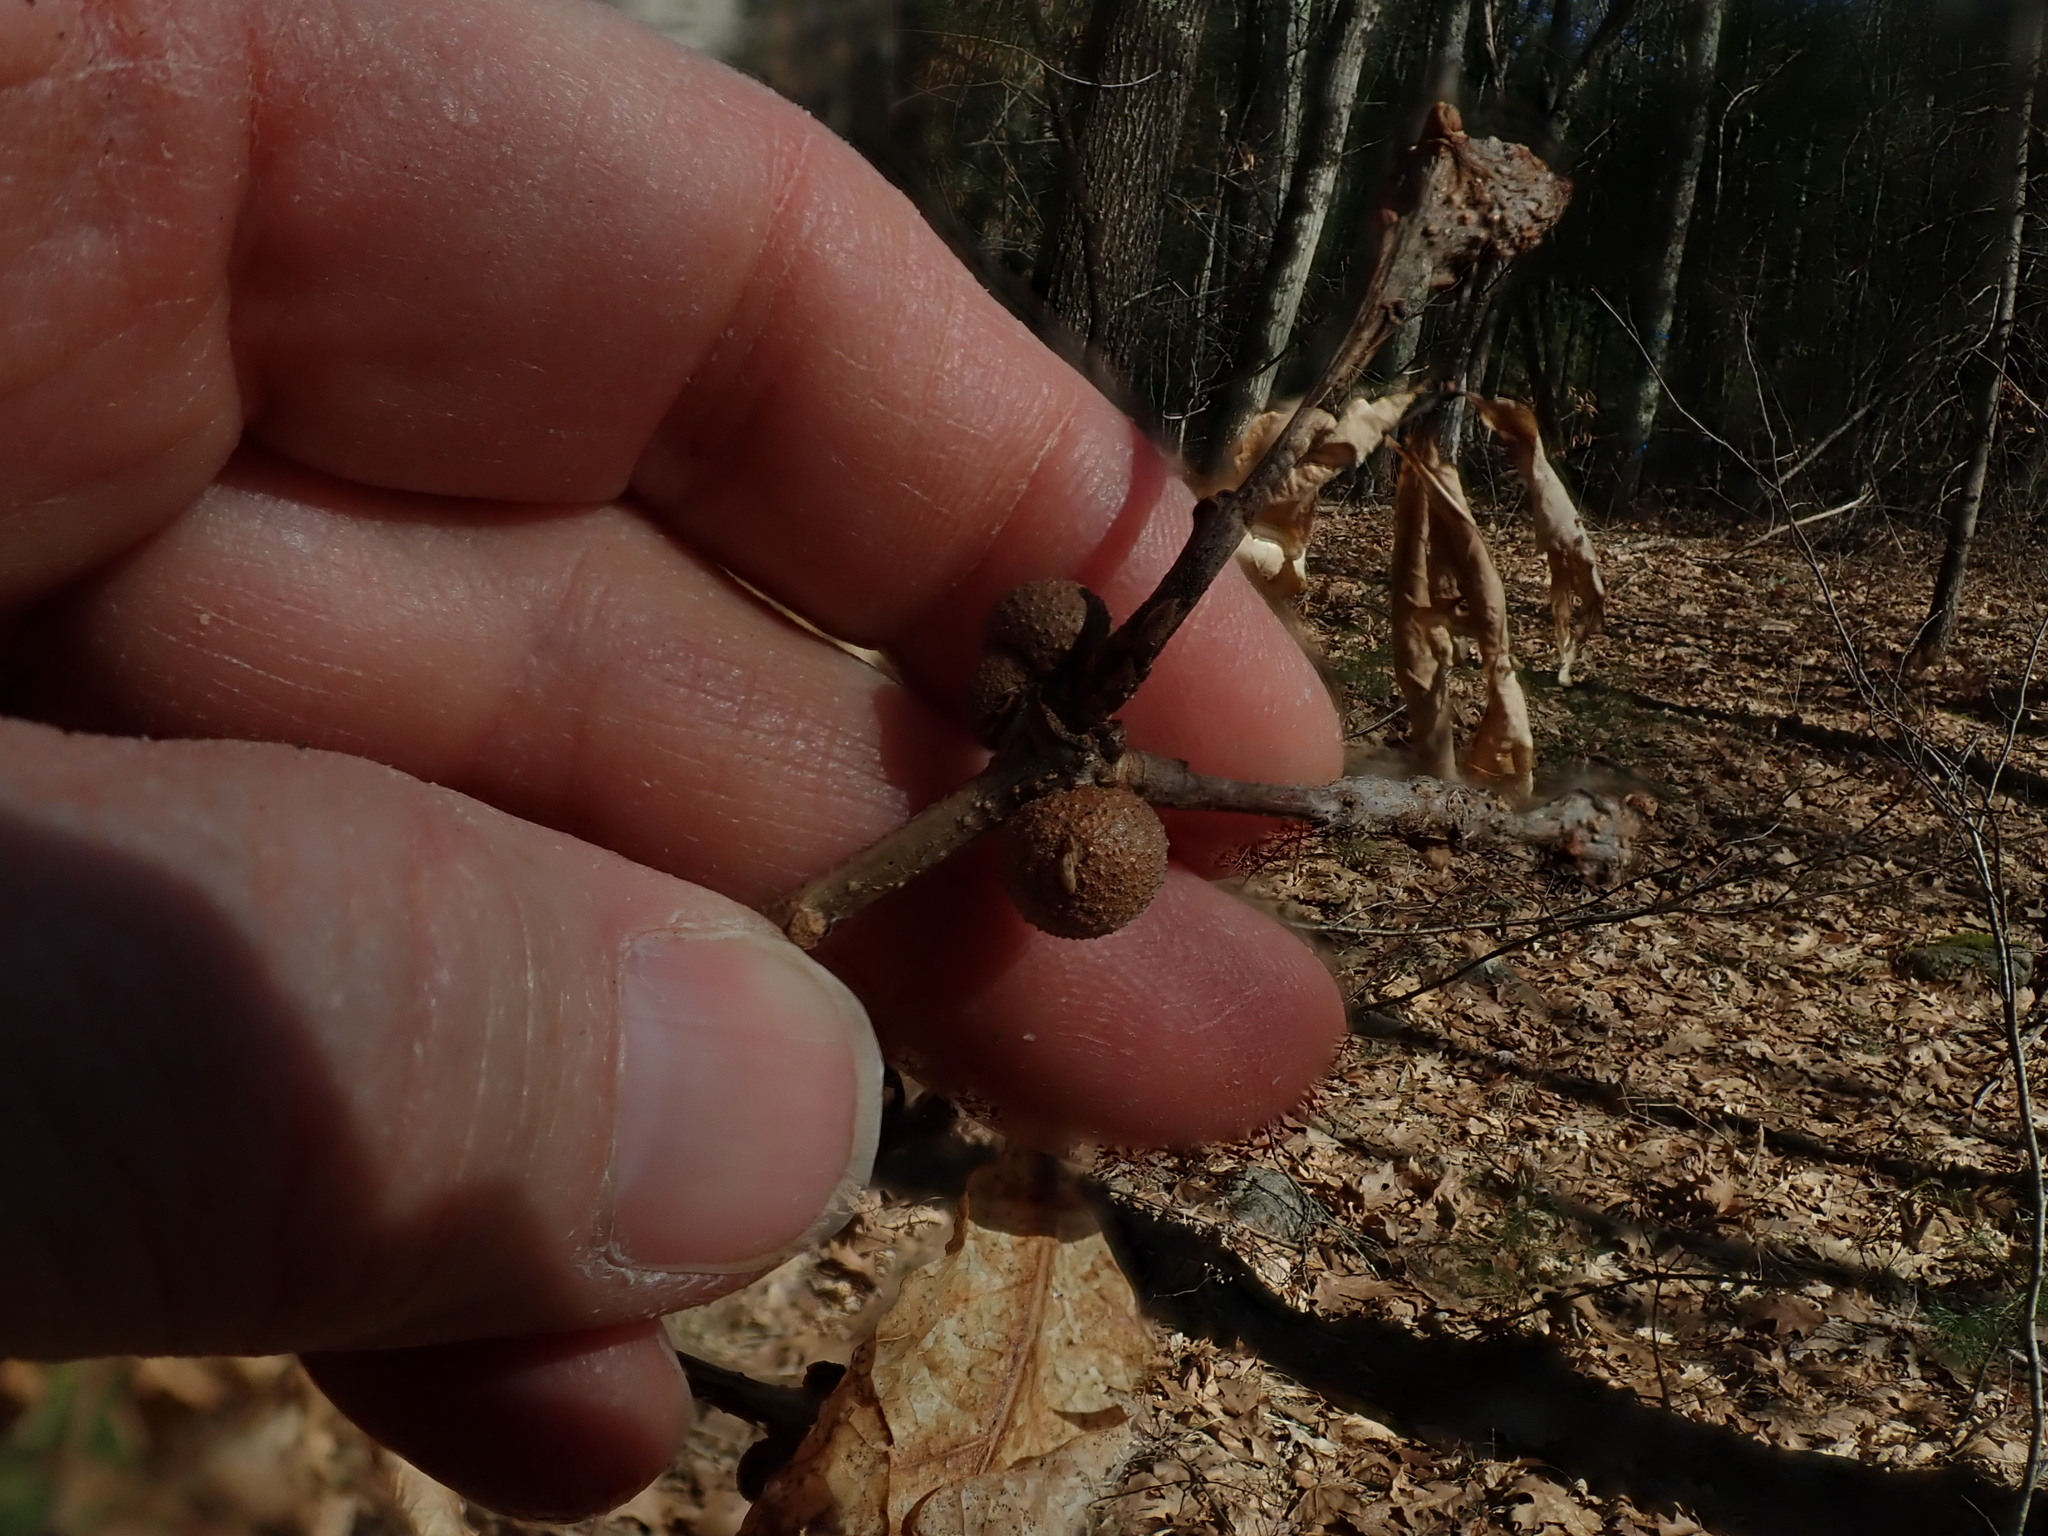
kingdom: Animalia
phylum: Arthropoda
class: Insecta
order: Hymenoptera
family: Cynipidae
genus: Disholcaspis
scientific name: Disholcaspis quercusglobulus
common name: Round bullet gall wasp
